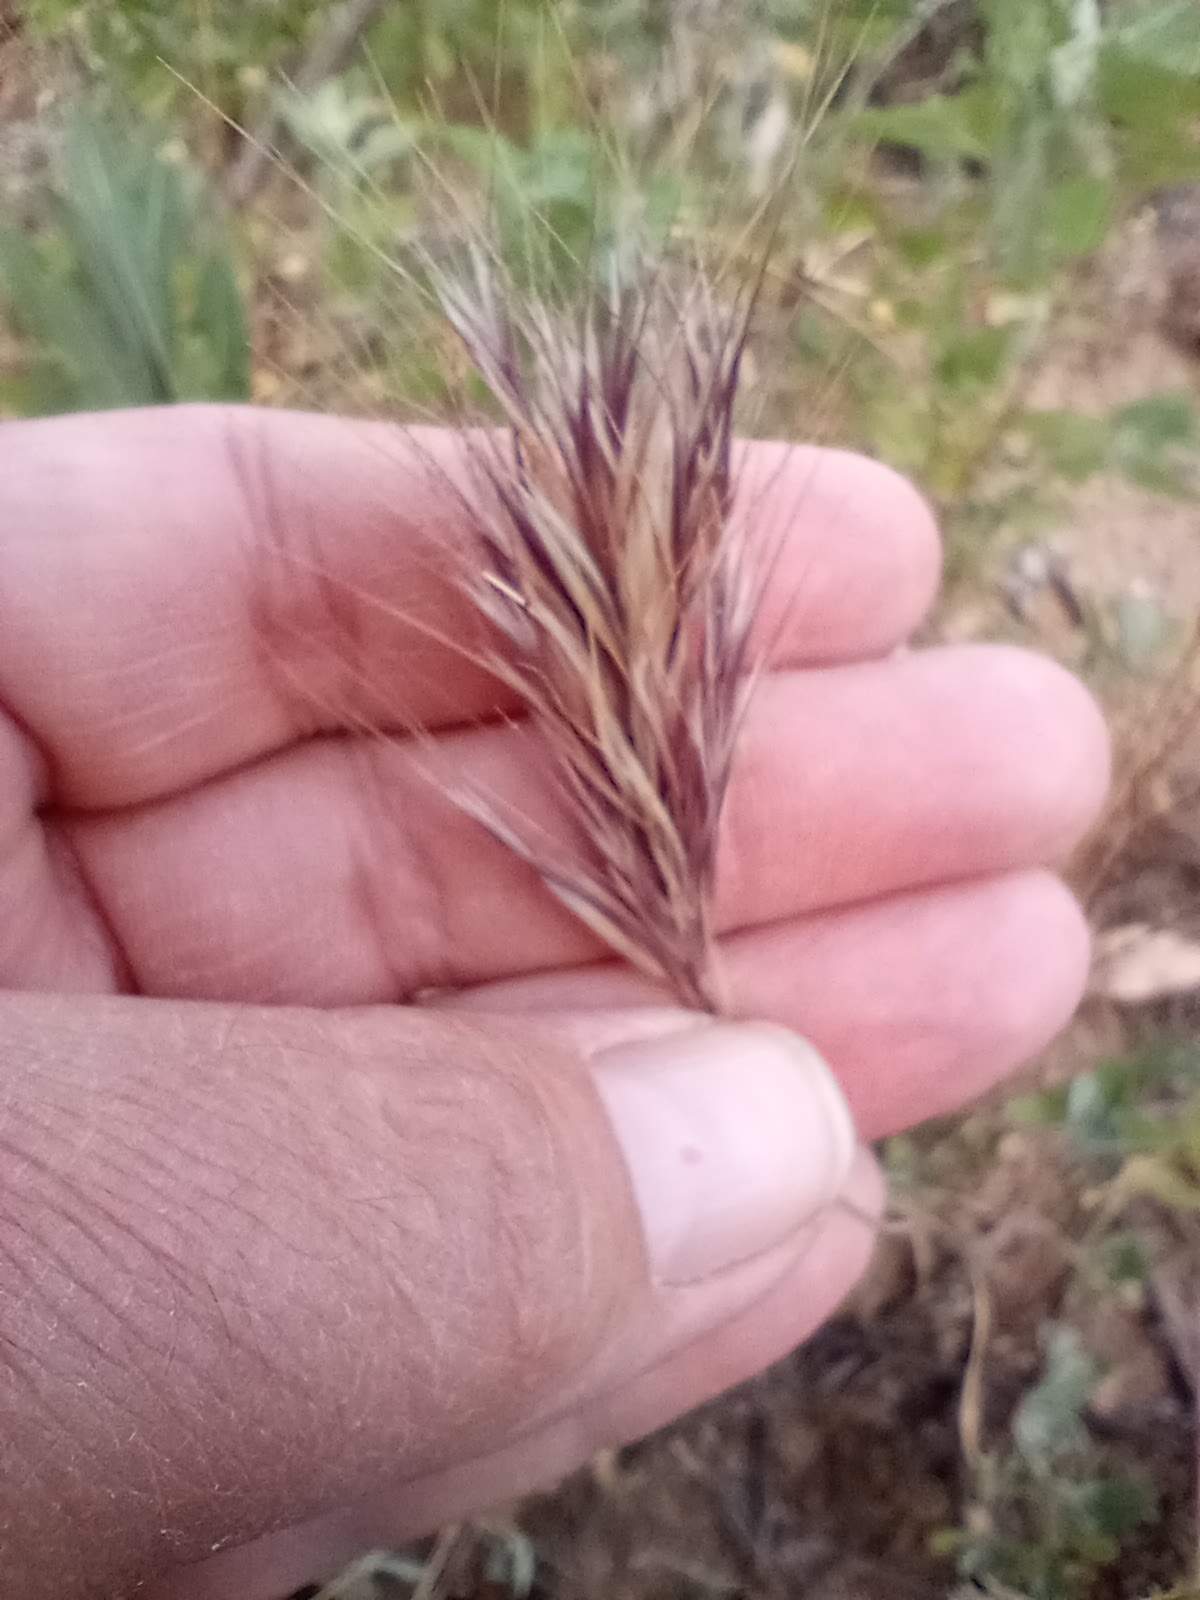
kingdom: Plantae
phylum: Tracheophyta
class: Liliopsida
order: Poales
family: Poaceae
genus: Bromus
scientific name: Bromus rubens
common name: Red brome
